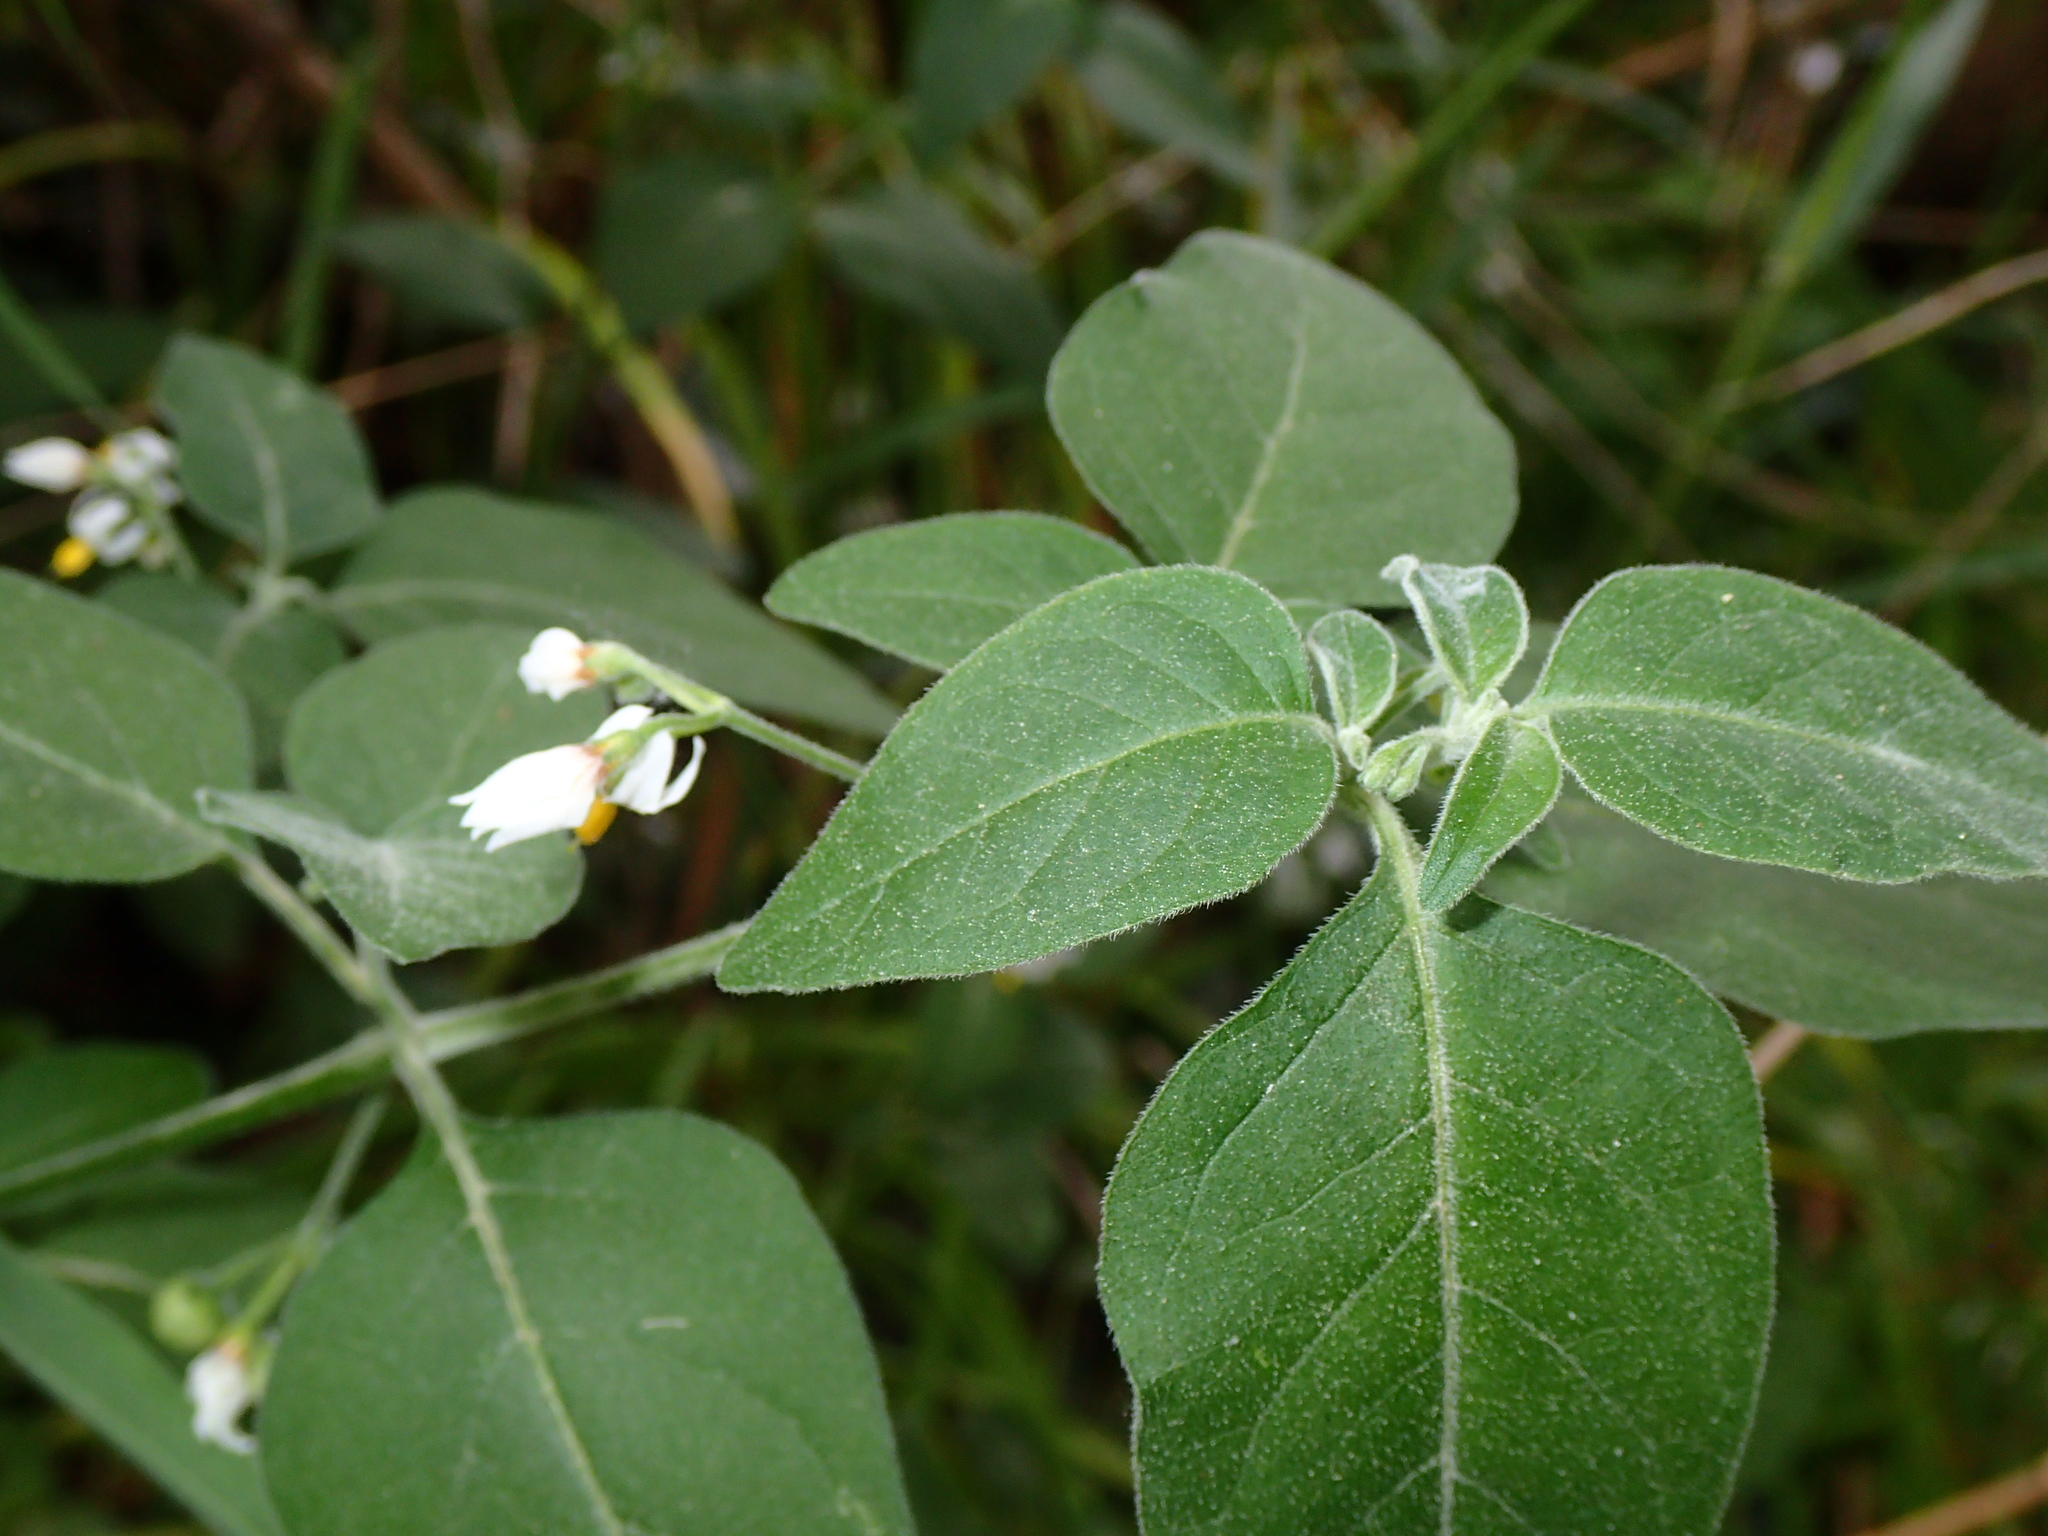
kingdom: Plantae
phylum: Tracheophyta
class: Magnoliopsida
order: Solanales
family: Solanaceae
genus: Solanum
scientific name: Solanum chenopodioides
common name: Tall nightshade
